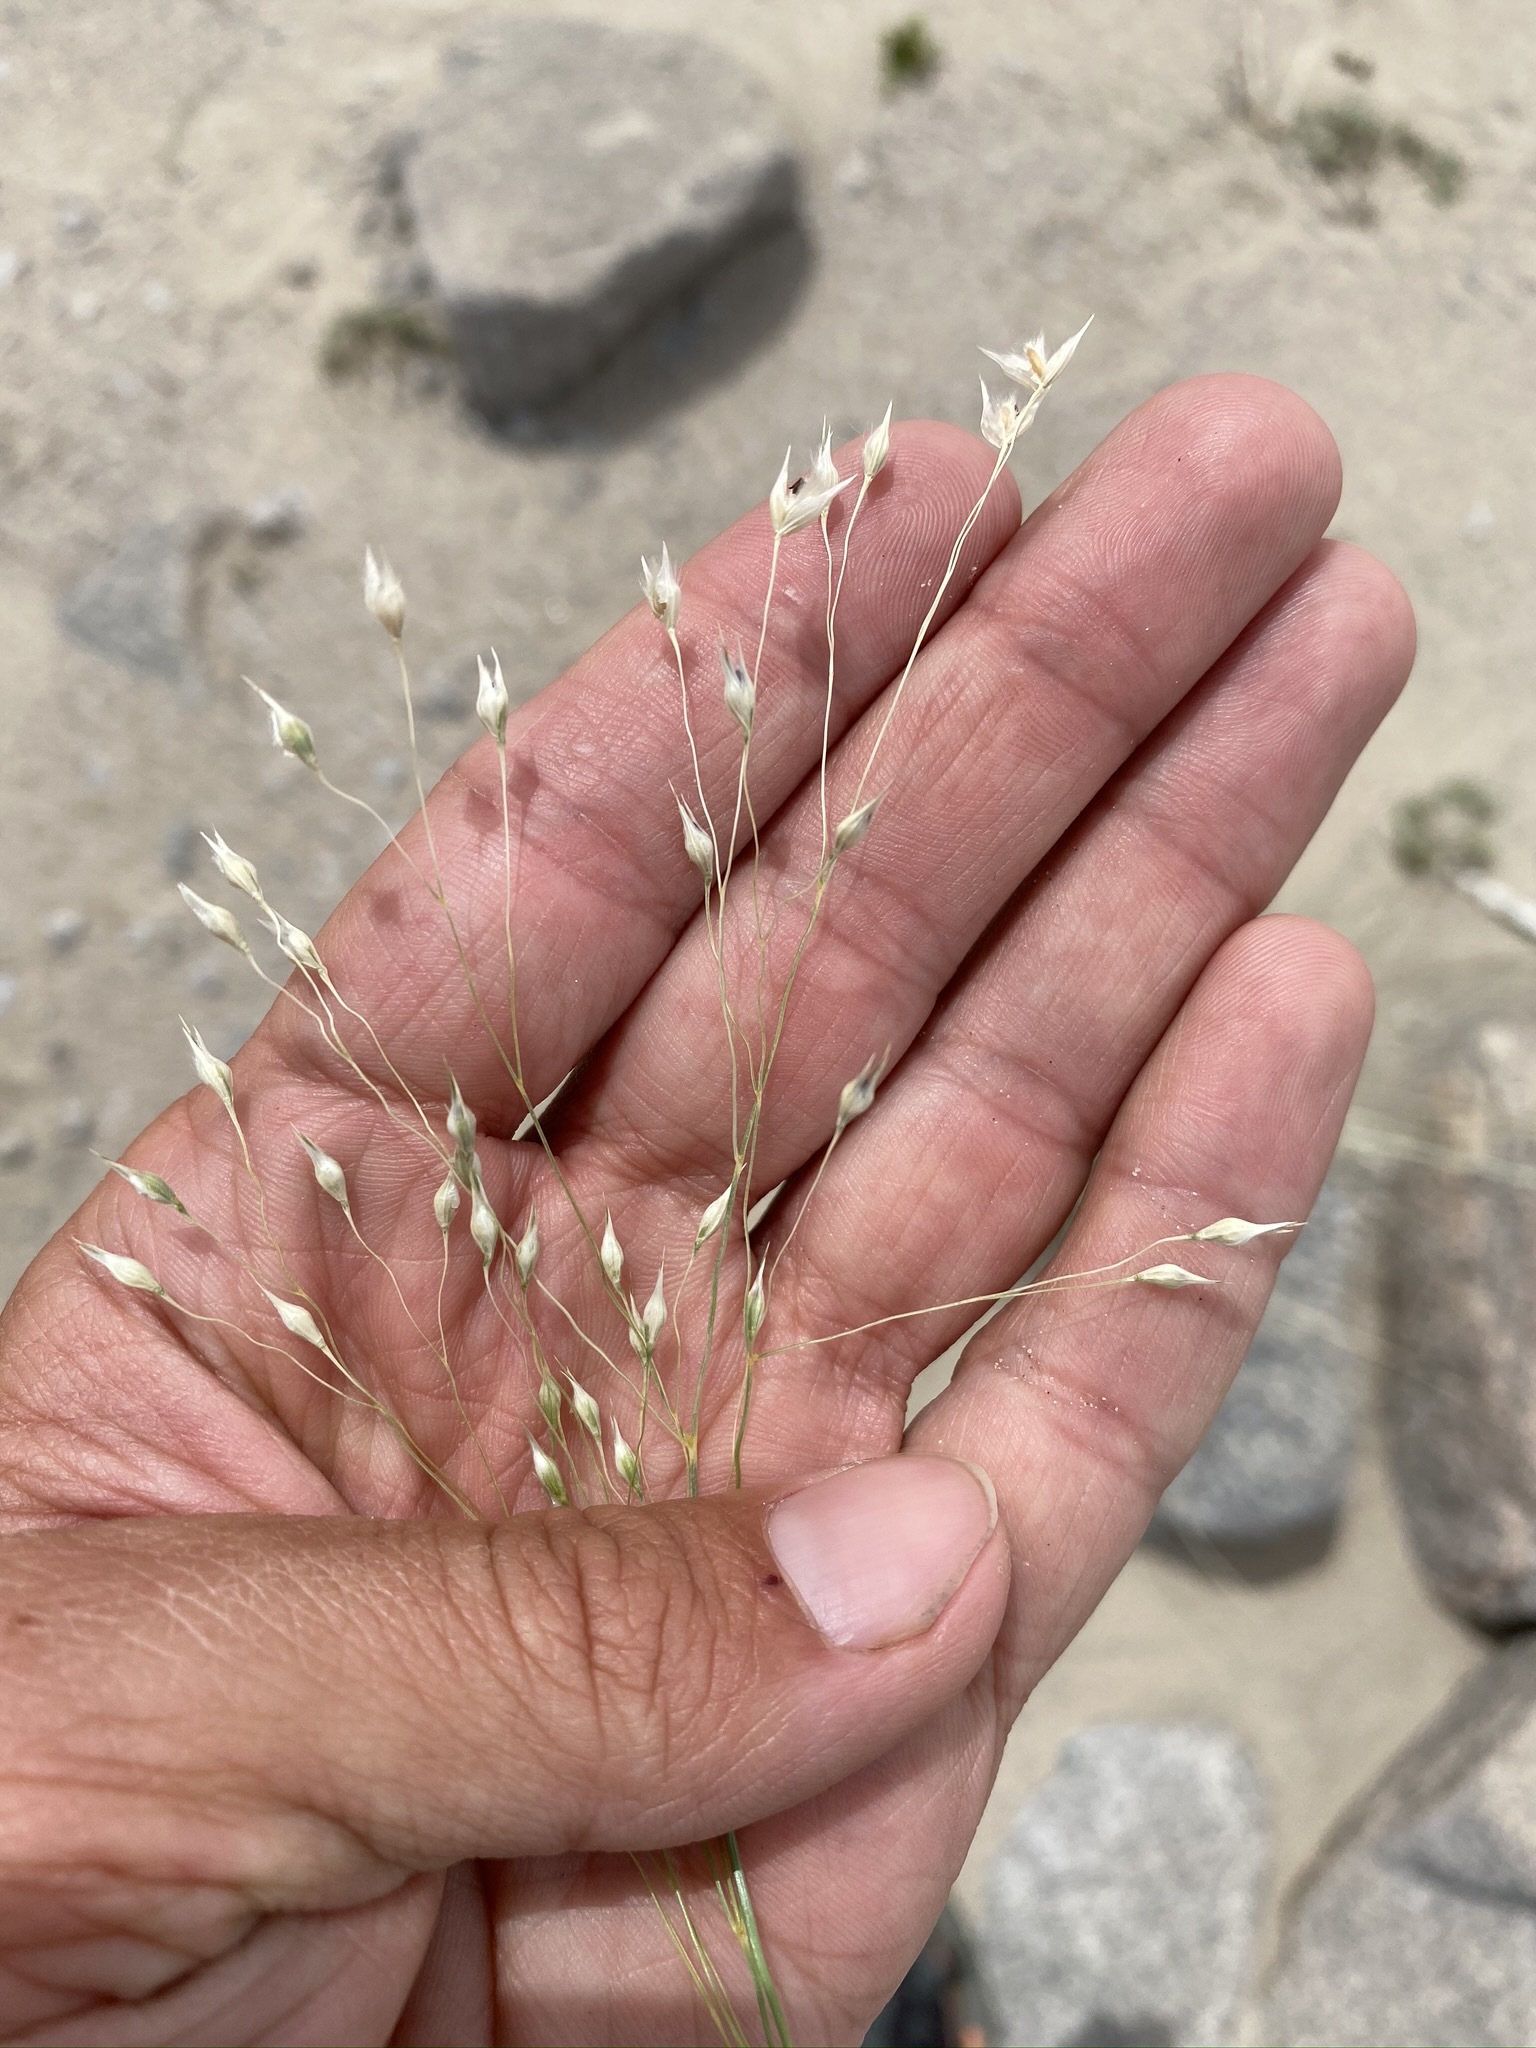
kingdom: Plantae
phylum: Tracheophyta
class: Liliopsida
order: Poales
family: Poaceae
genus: Eriocoma
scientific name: Eriocoma hymenoides
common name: Indian mountain ricegrass
